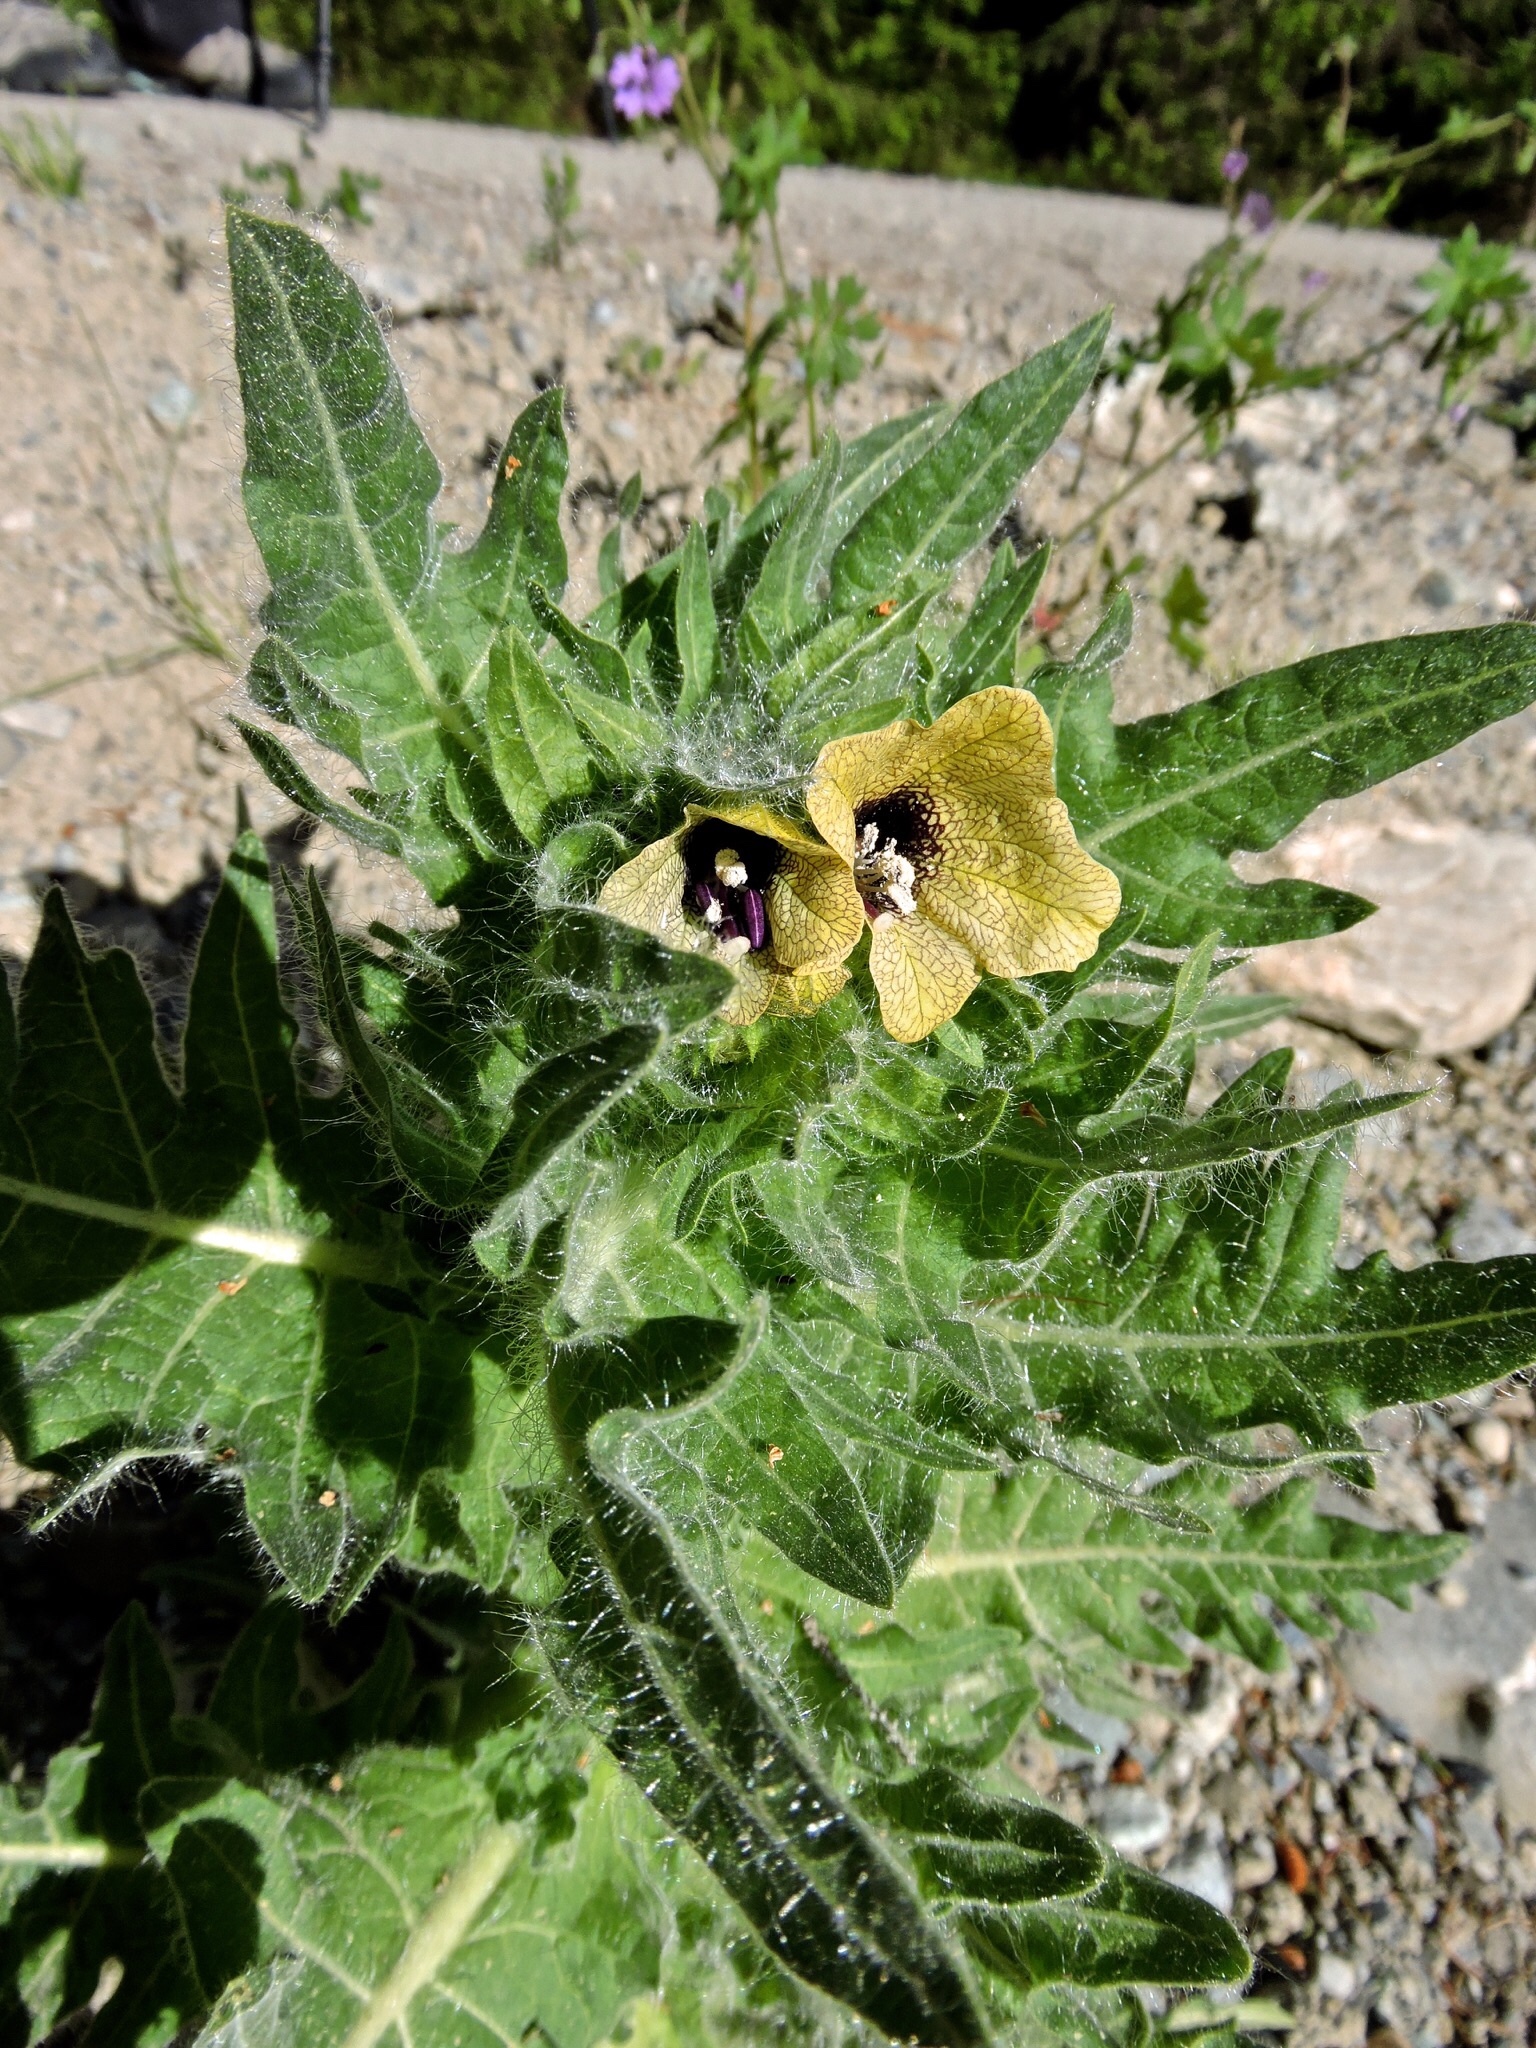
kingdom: Plantae
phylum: Tracheophyta
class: Magnoliopsida
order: Solanales
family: Solanaceae
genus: Hyoscyamus
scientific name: Hyoscyamus niger
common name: Henbane
